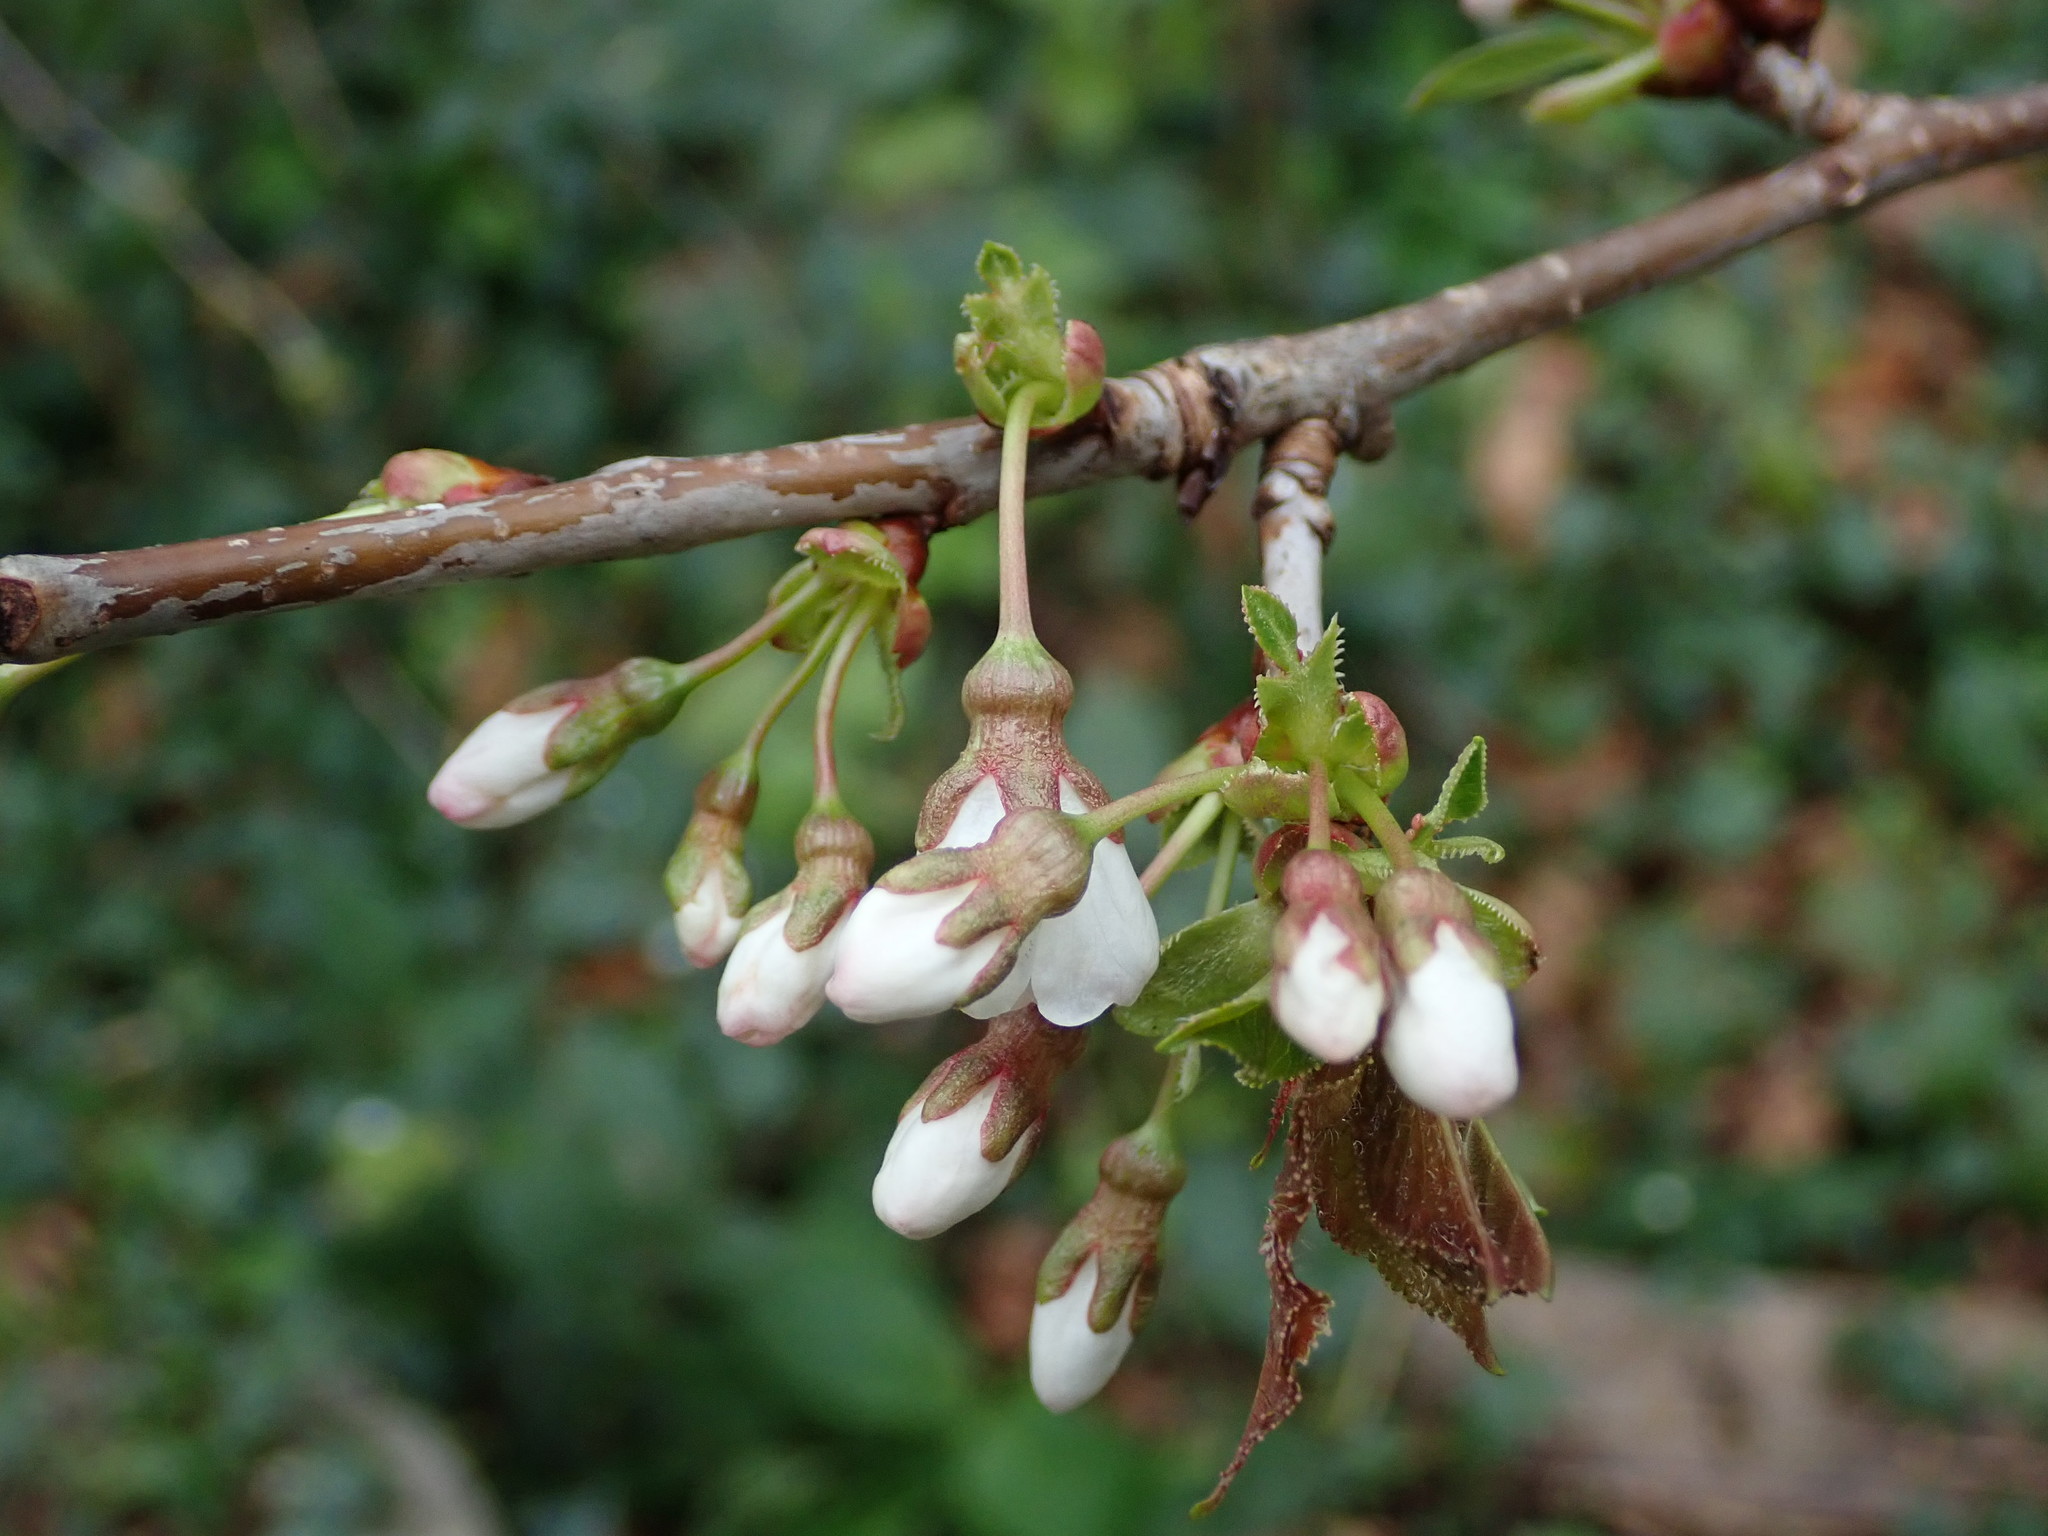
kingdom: Plantae
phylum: Tracheophyta
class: Magnoliopsida
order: Rosales
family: Rosaceae
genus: Prunus
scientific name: Prunus avium
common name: Sweet cherry
